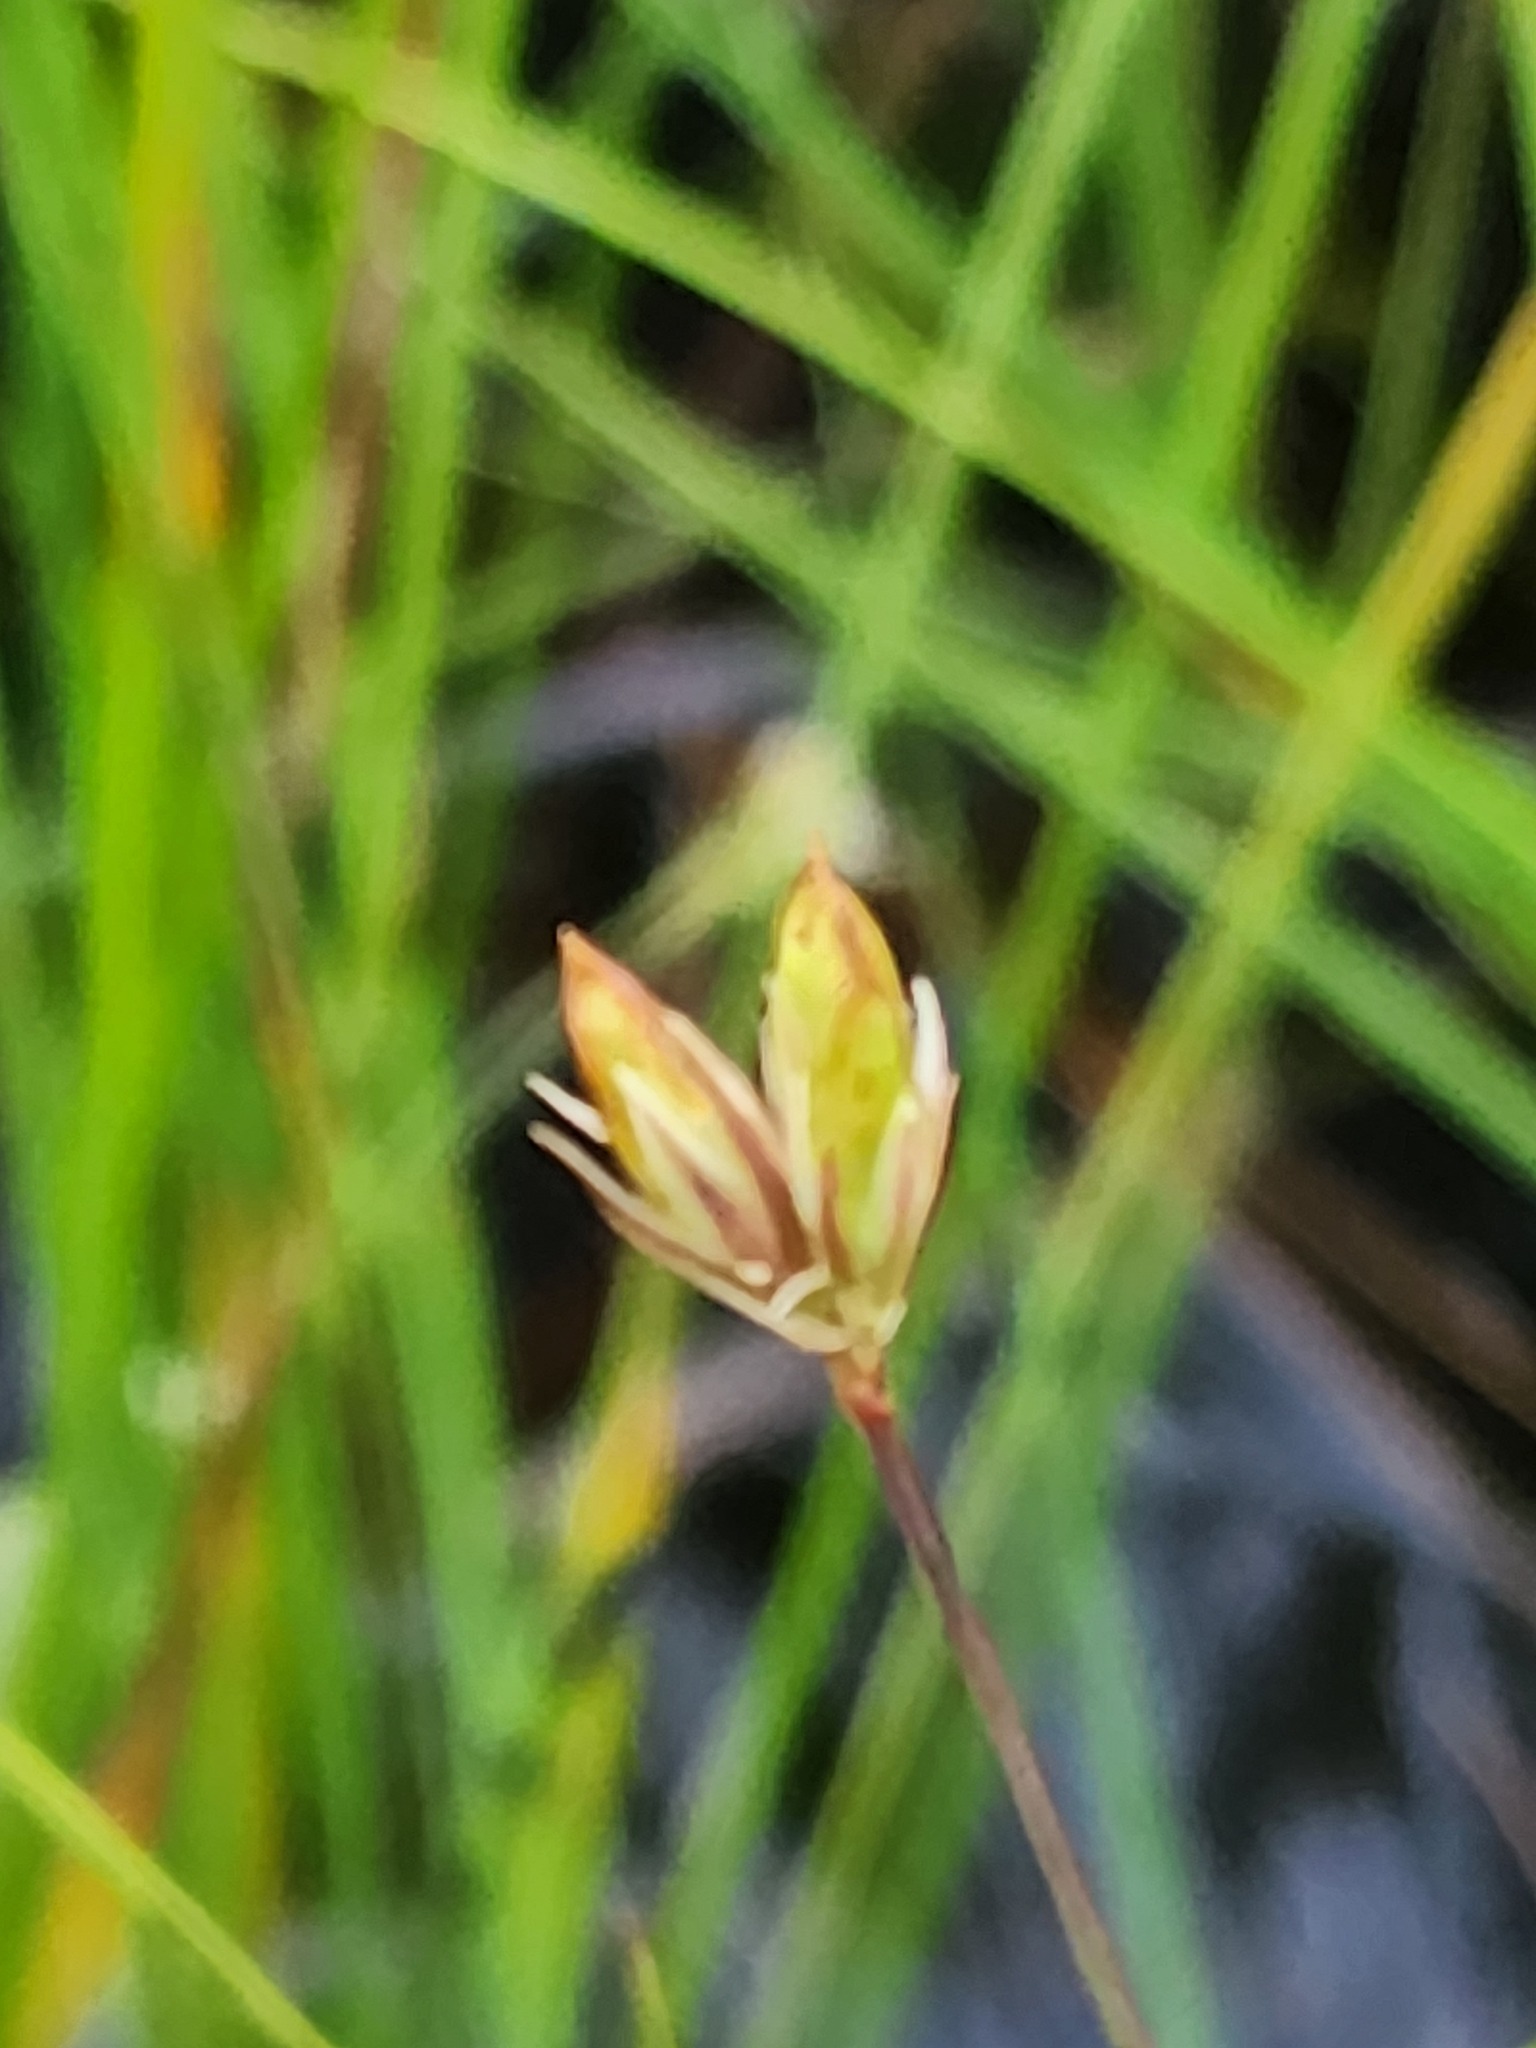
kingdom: Plantae
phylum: Tracheophyta
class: Liliopsida
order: Poales
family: Juncaceae
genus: Juncus
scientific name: Juncus stygius
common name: Bog rush
